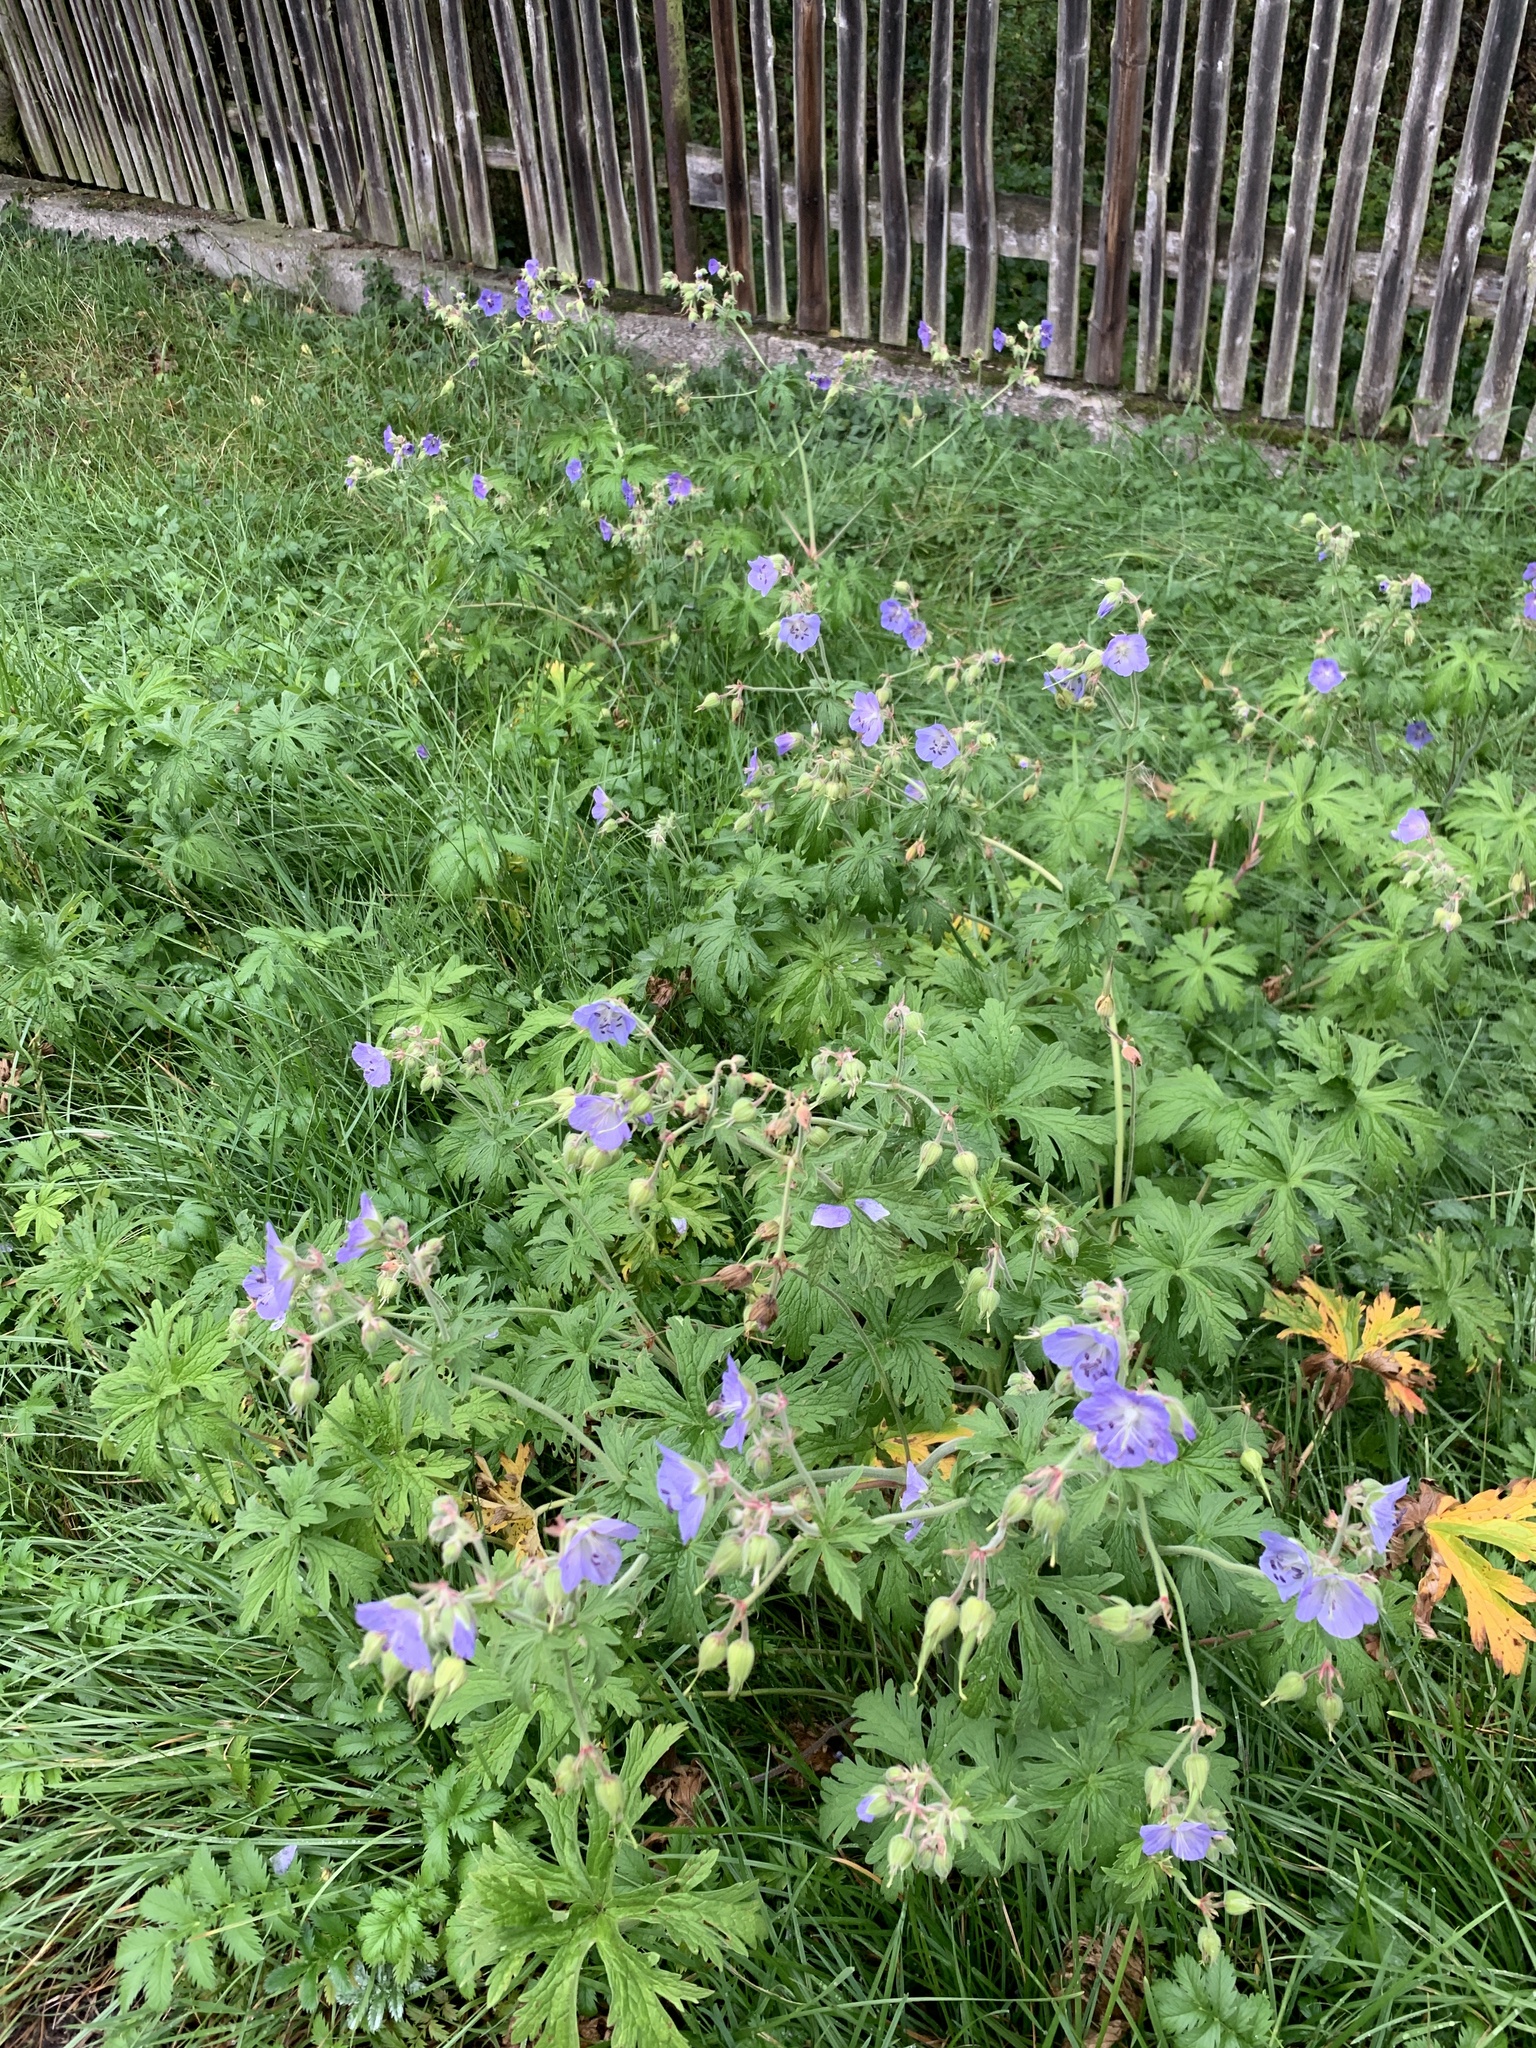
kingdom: Plantae
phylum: Tracheophyta
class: Magnoliopsida
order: Geraniales
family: Geraniaceae
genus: Geranium
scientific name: Geranium pratense
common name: Meadow crane's-bill
